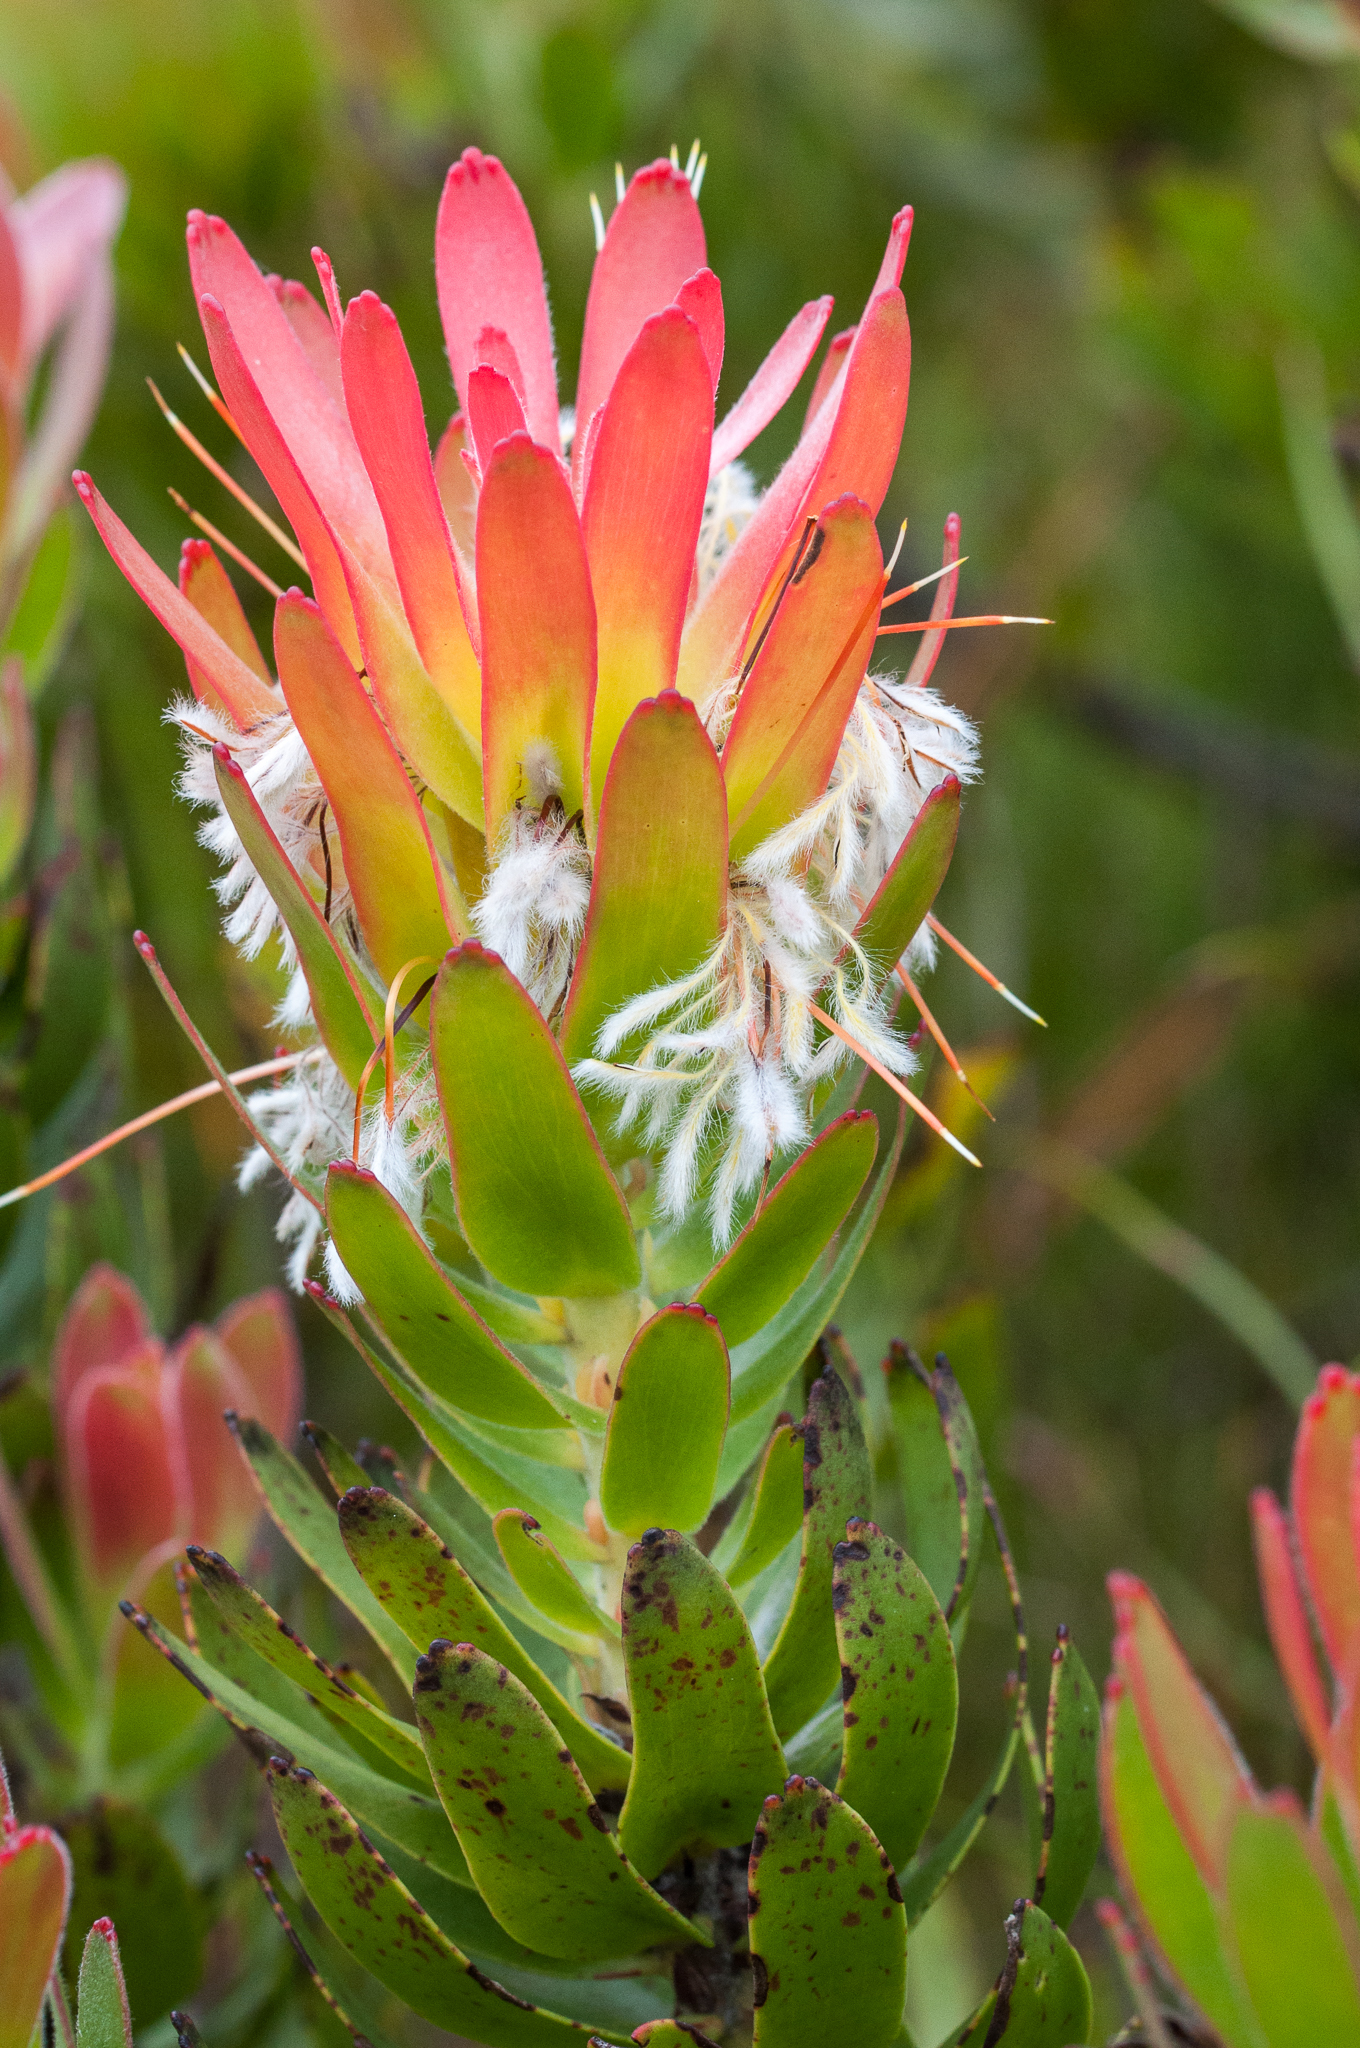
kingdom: Plantae
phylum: Tracheophyta
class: Magnoliopsida
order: Proteales
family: Proteaceae
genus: Mimetes
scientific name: Mimetes cucullatus
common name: Common pagoda
